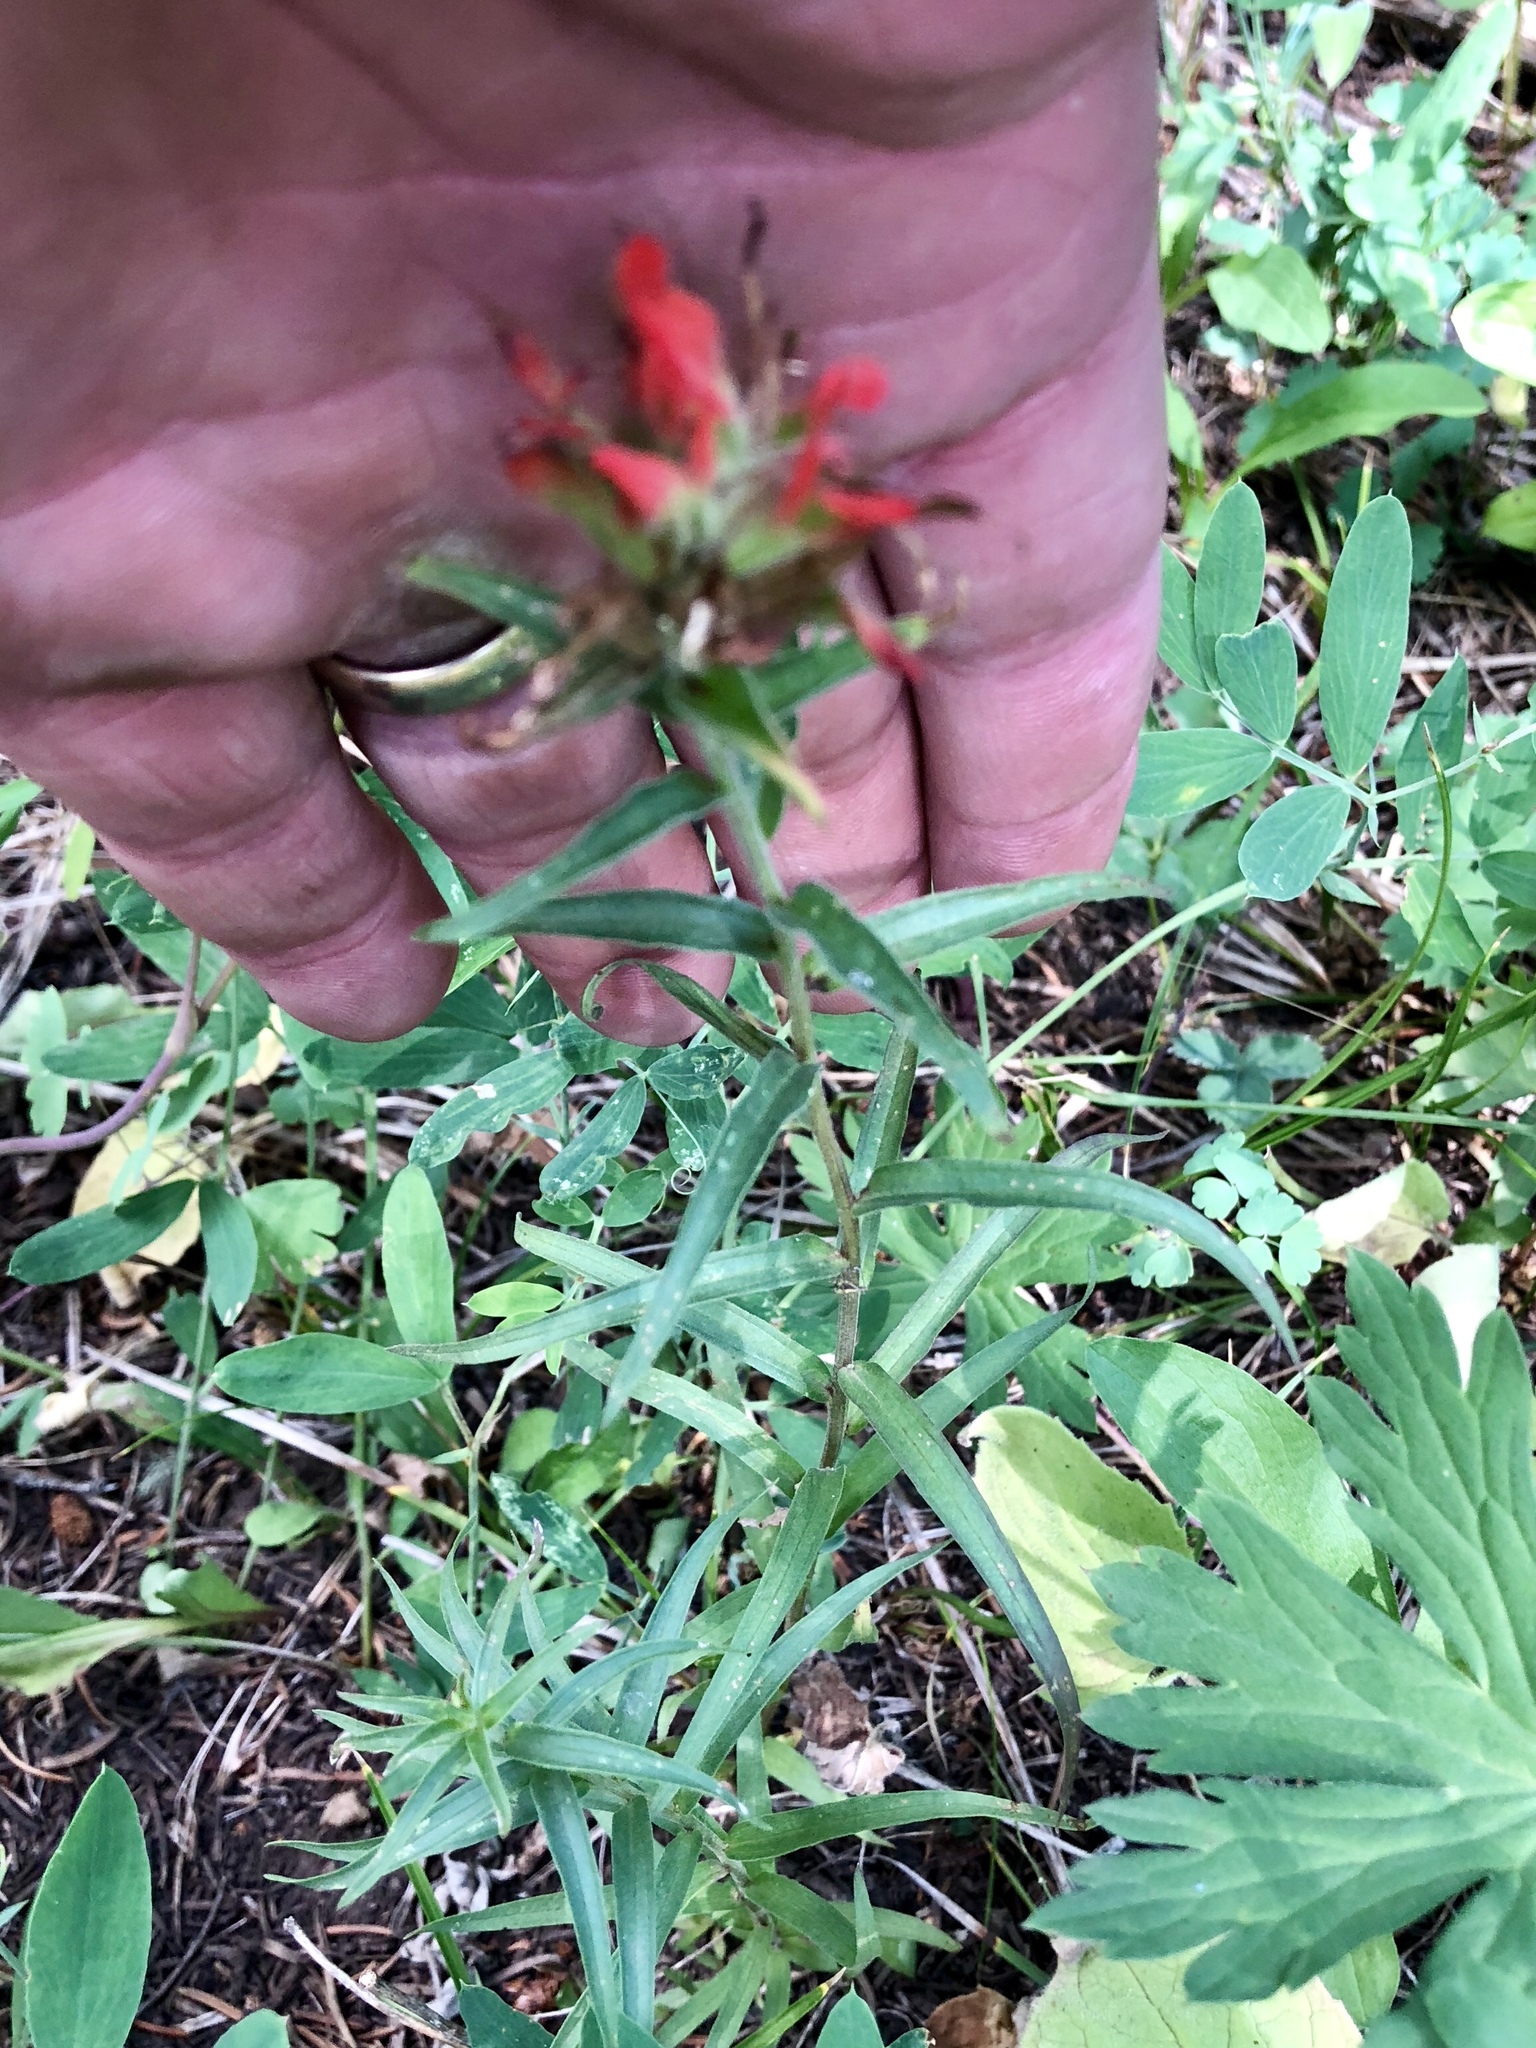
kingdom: Plantae
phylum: Tracheophyta
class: Magnoliopsida
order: Lamiales
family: Orobanchaceae
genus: Castilleja
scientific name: Castilleja miniata
